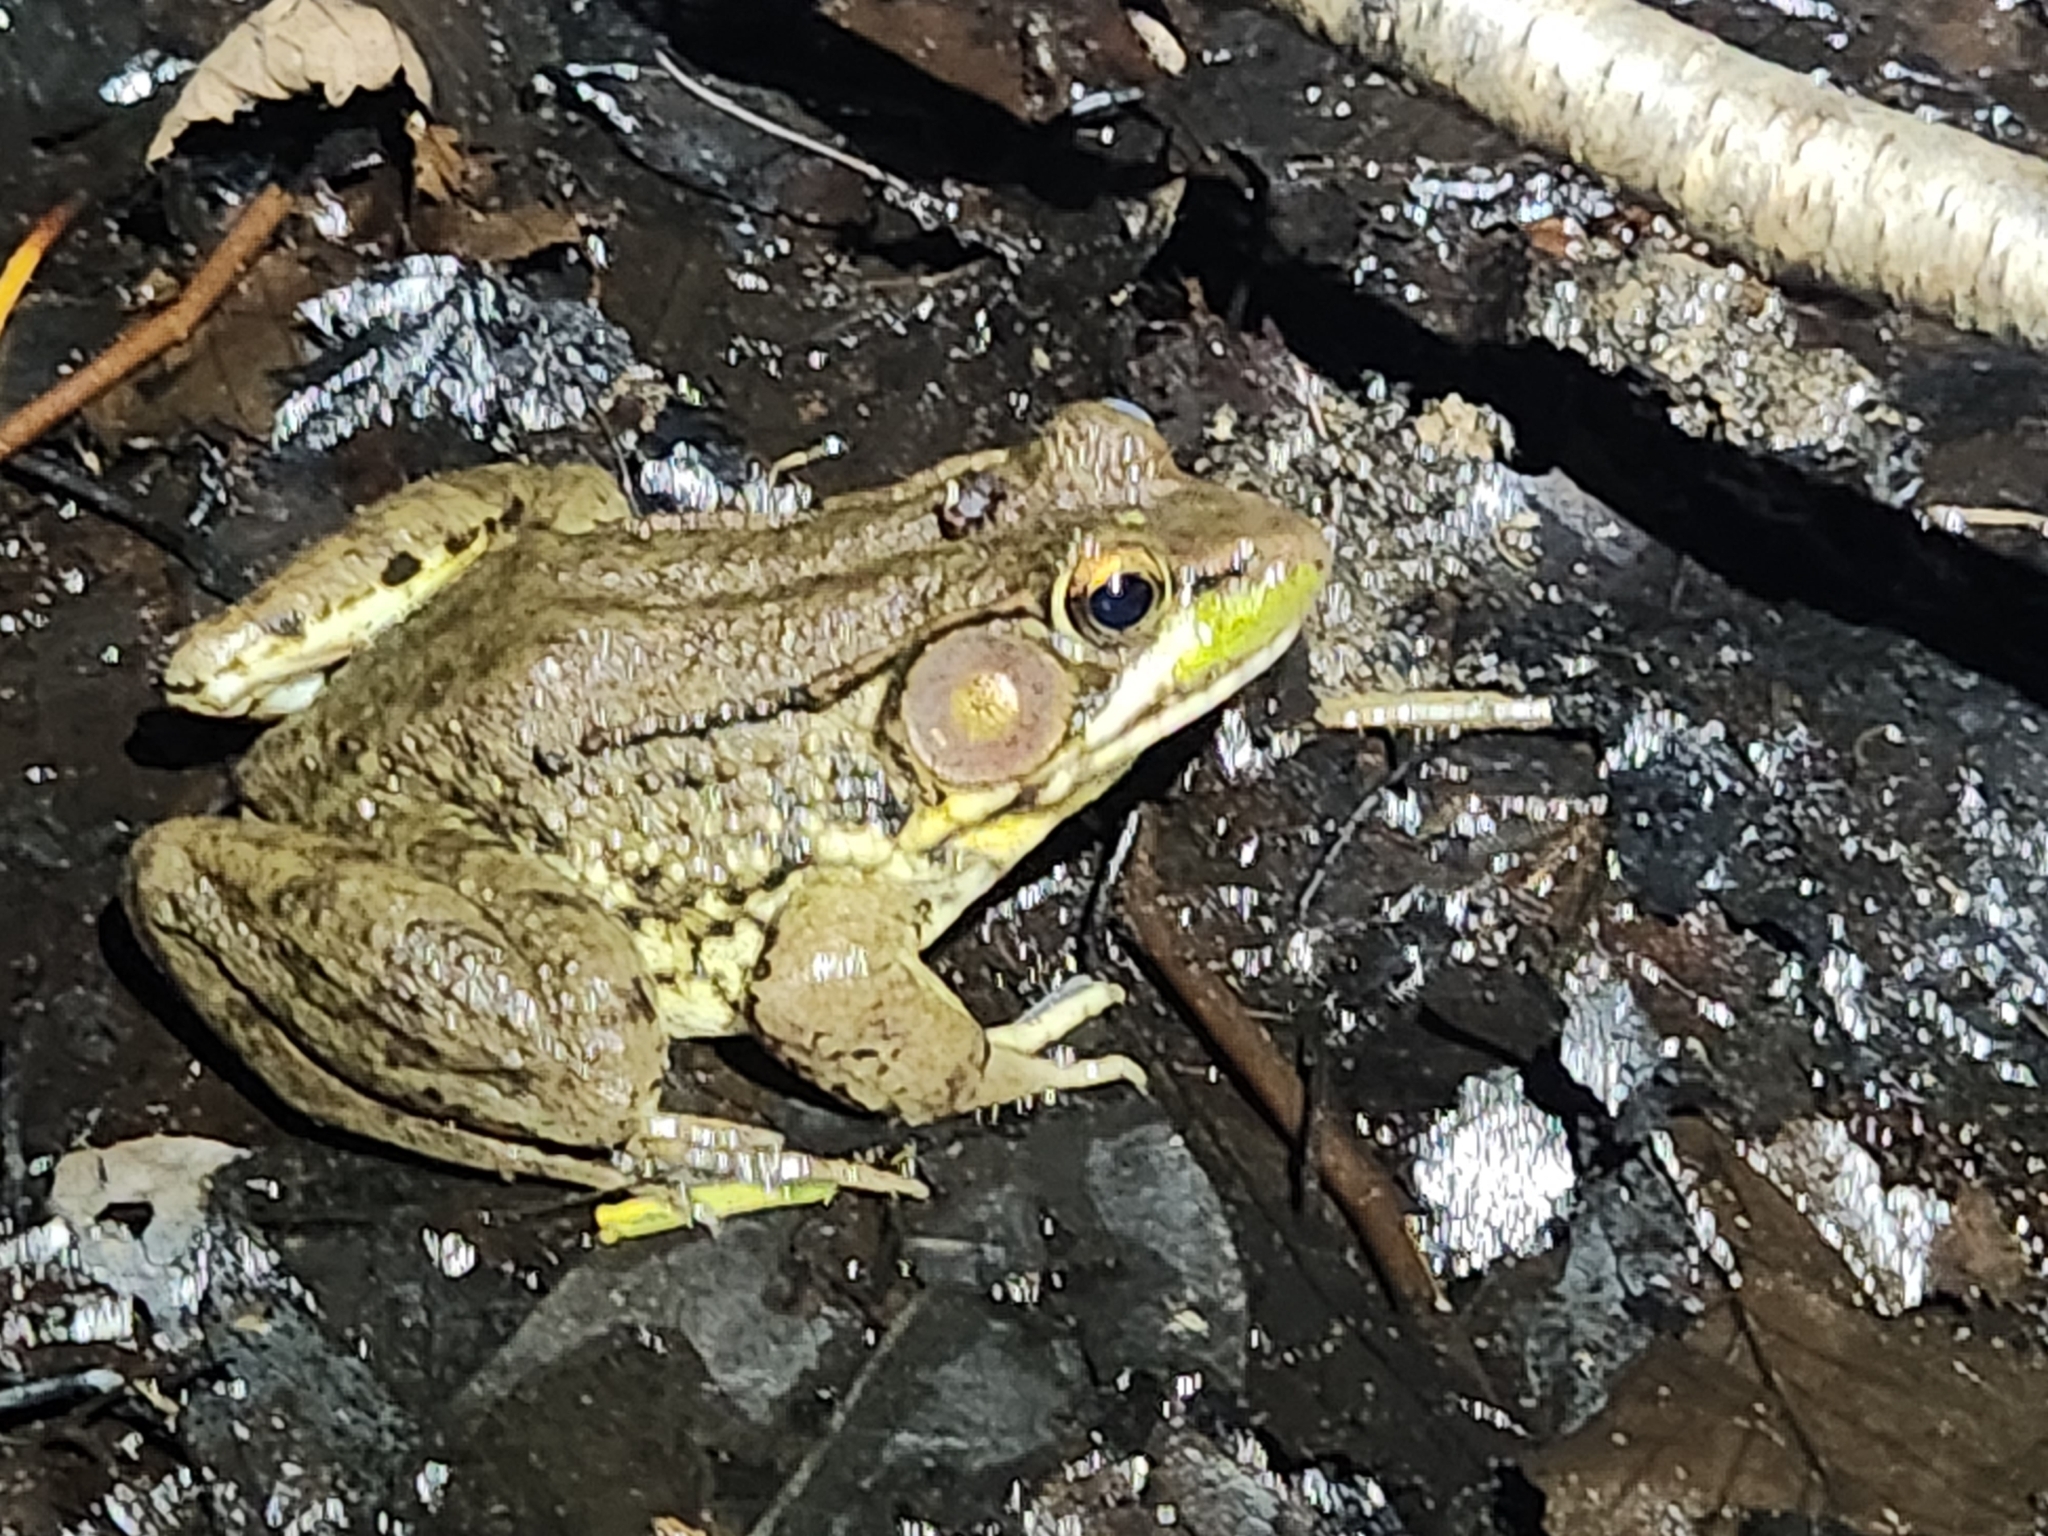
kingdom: Animalia
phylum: Chordata
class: Amphibia
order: Anura
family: Ranidae
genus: Lithobates
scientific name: Lithobates clamitans
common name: Green frog
